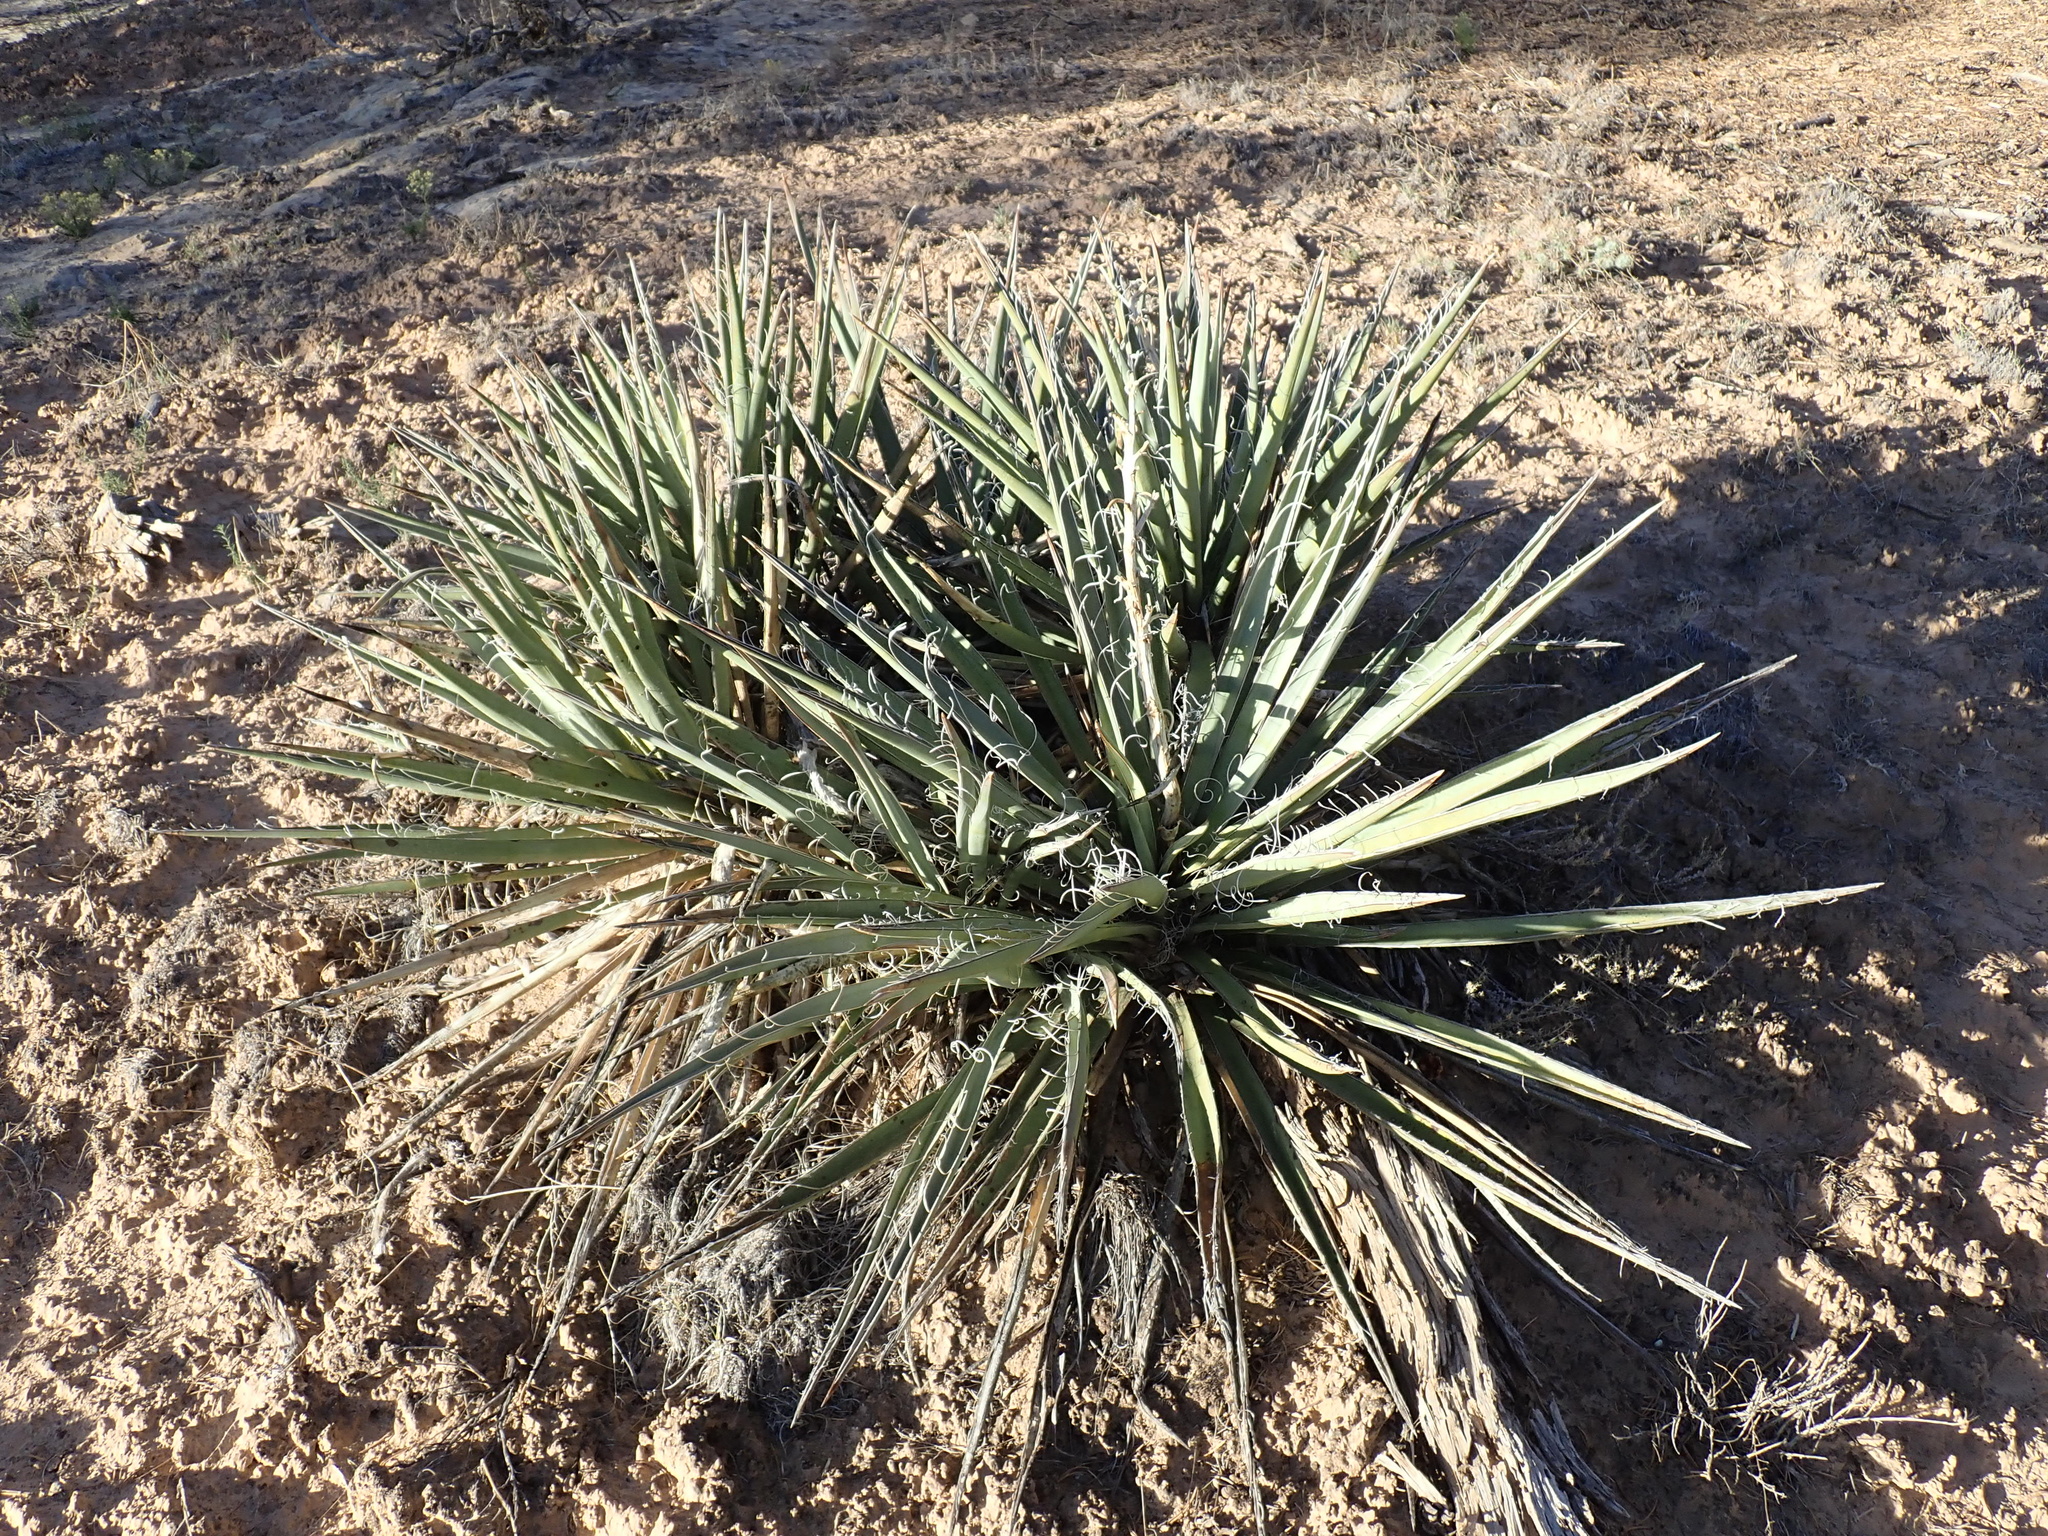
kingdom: Plantae
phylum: Tracheophyta
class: Liliopsida
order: Asparagales
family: Asparagaceae
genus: Yucca
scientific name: Yucca baccata
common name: Banana yucca
